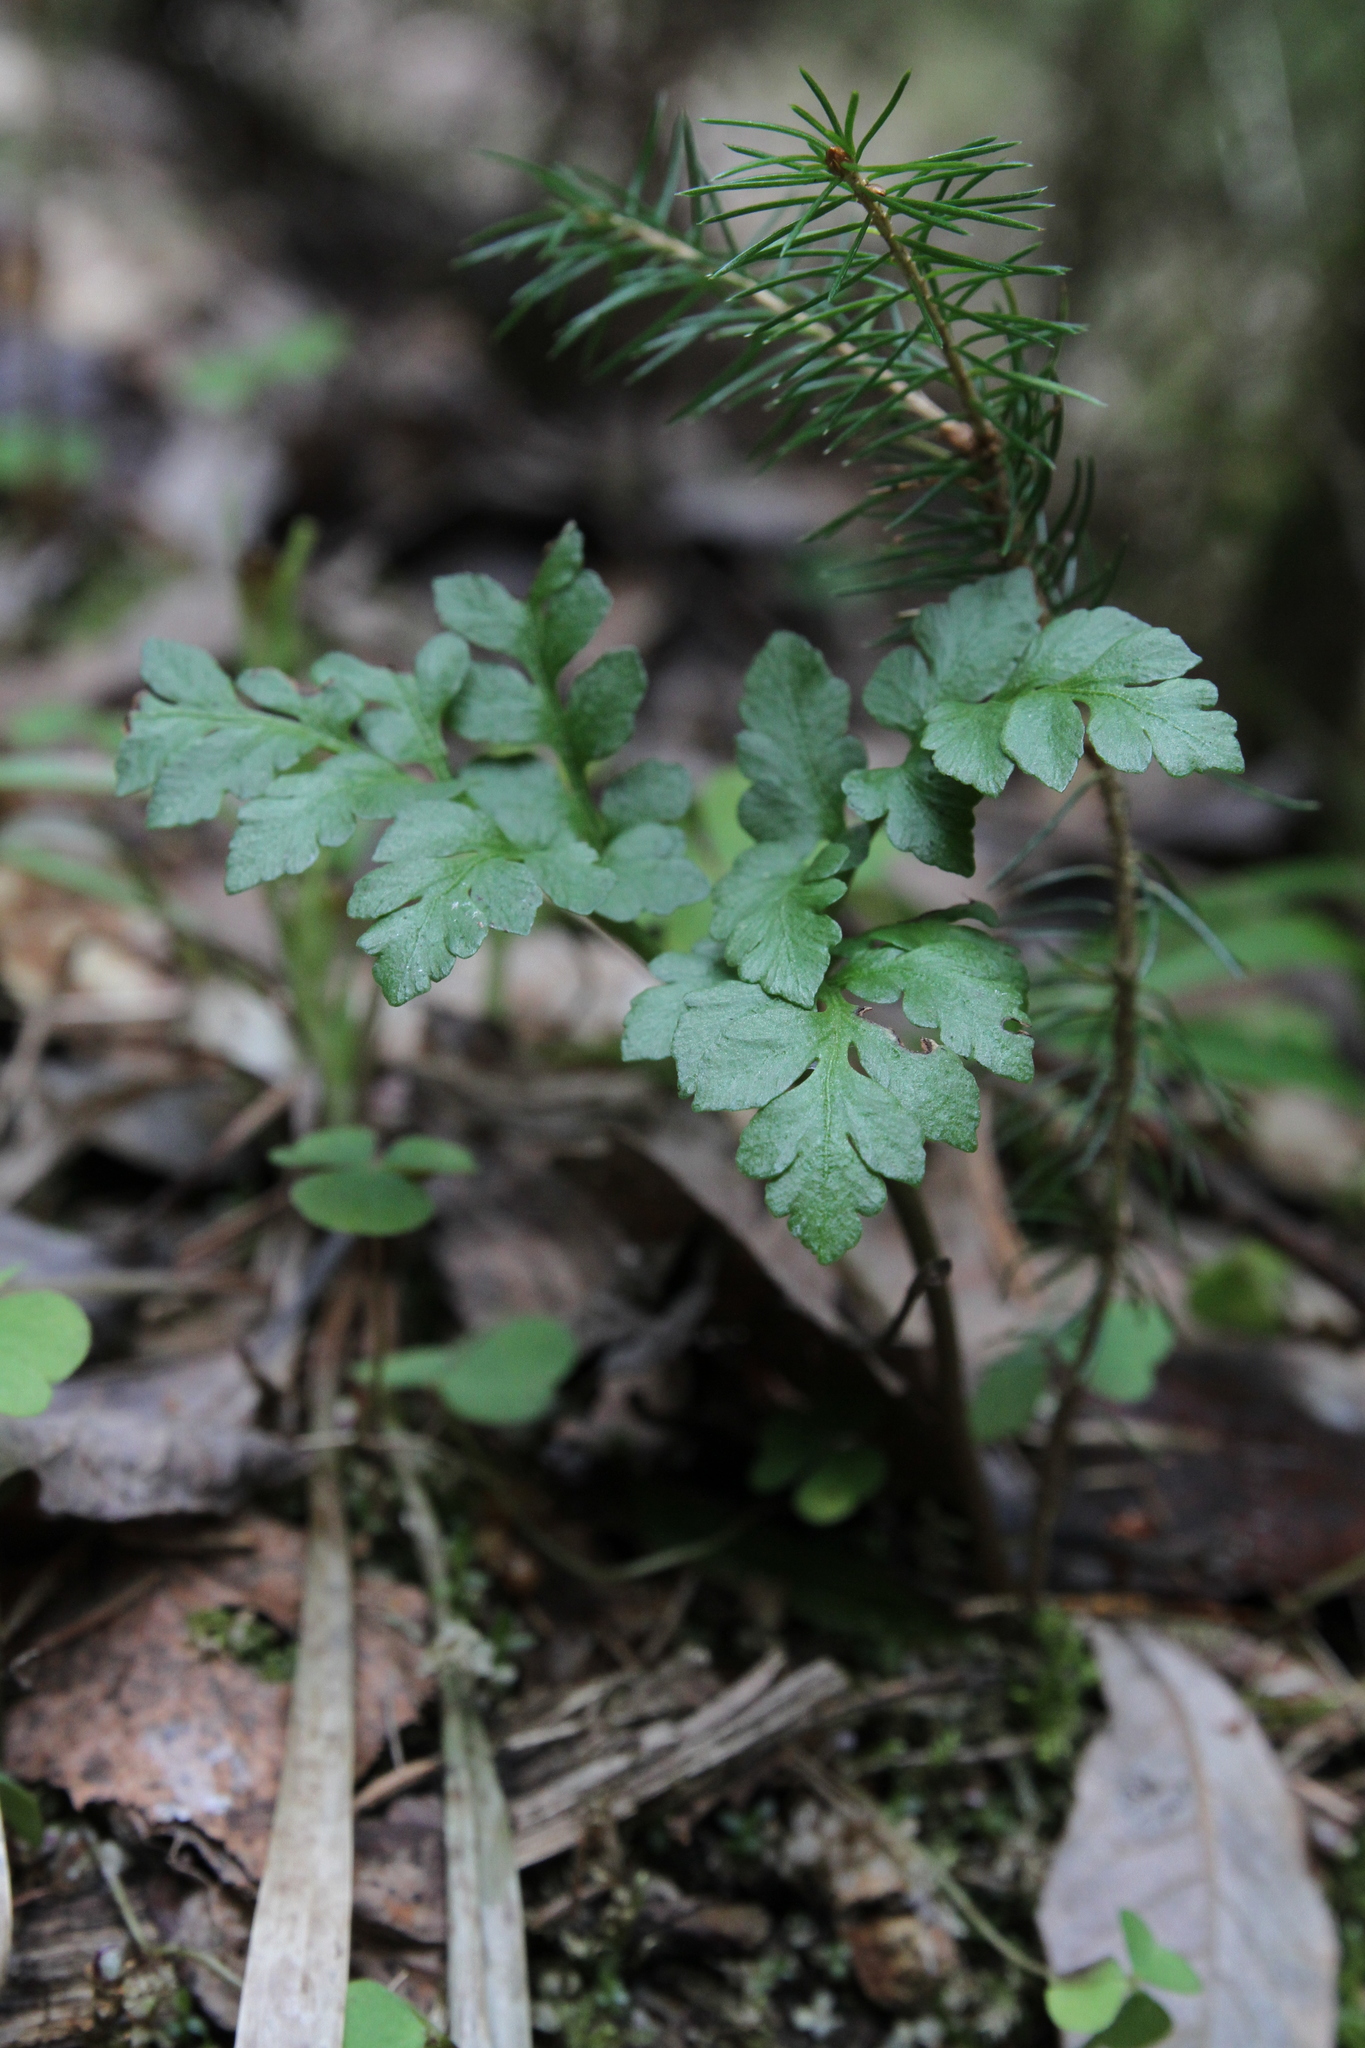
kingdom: Plantae
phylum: Tracheophyta
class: Polypodiopsida
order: Ophioglossales
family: Ophioglossaceae
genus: Sceptridium
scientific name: Sceptridium multifidum
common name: Leathery grape fern
